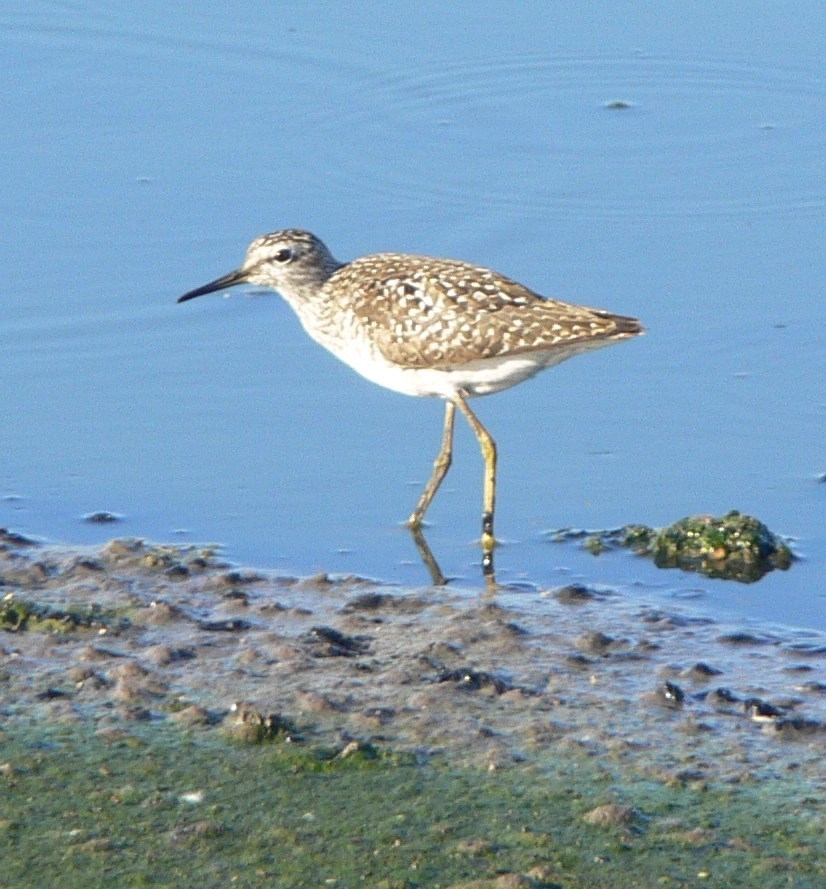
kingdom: Animalia
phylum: Chordata
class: Aves
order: Charadriiformes
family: Scolopacidae
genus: Tringa
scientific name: Tringa glareola
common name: Wood sandpiper
